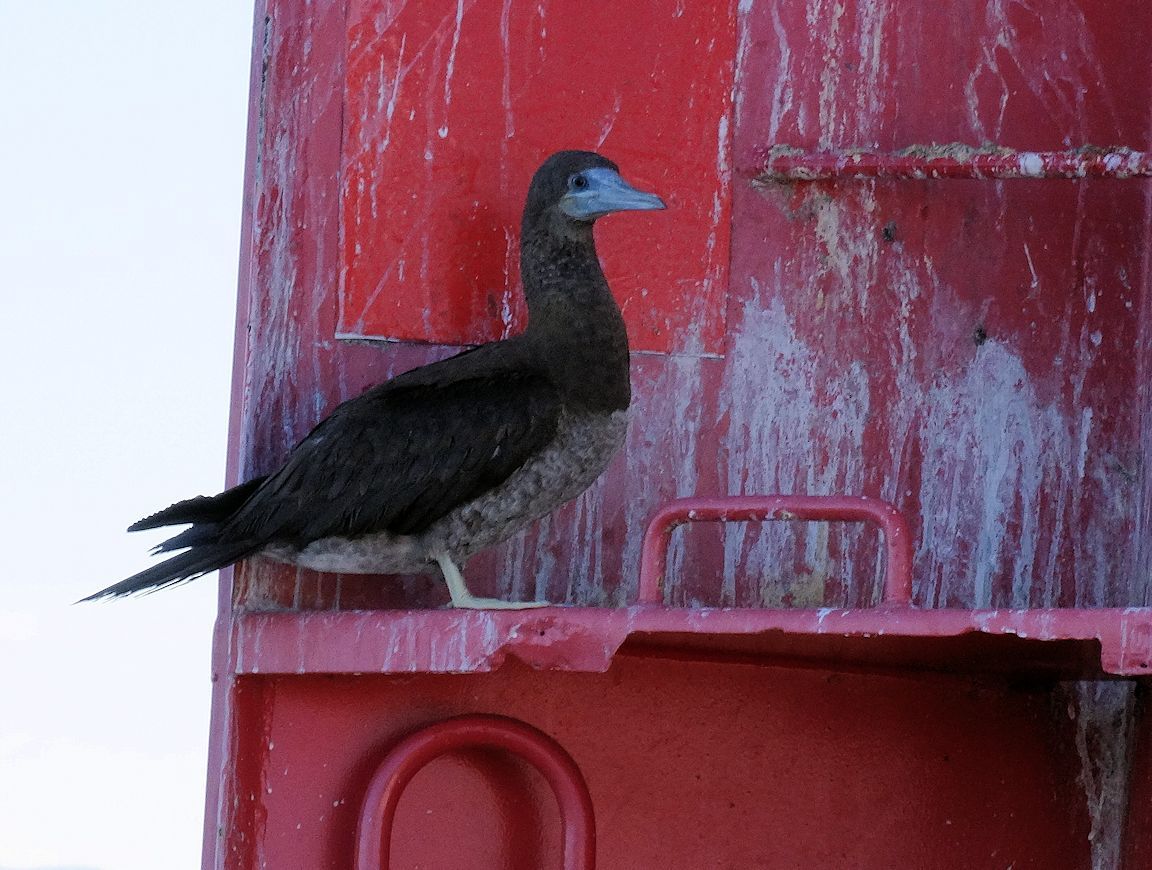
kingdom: Animalia
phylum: Chordata
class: Aves
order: Suliformes
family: Sulidae
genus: Sula
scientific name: Sula leucogaster
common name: Brown booby
